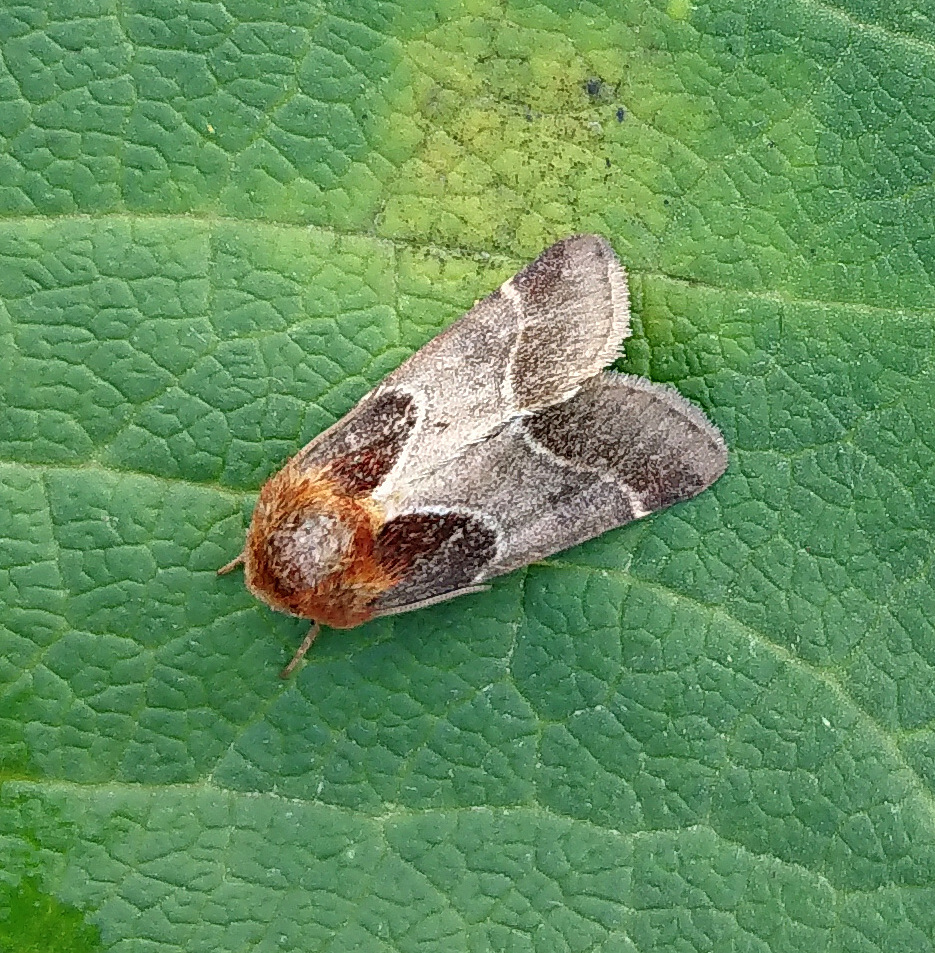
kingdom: Animalia
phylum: Arthropoda
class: Insecta
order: Lepidoptera
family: Noctuidae
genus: Schinia
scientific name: Schinia arcigera
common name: Arcigera flower moth
